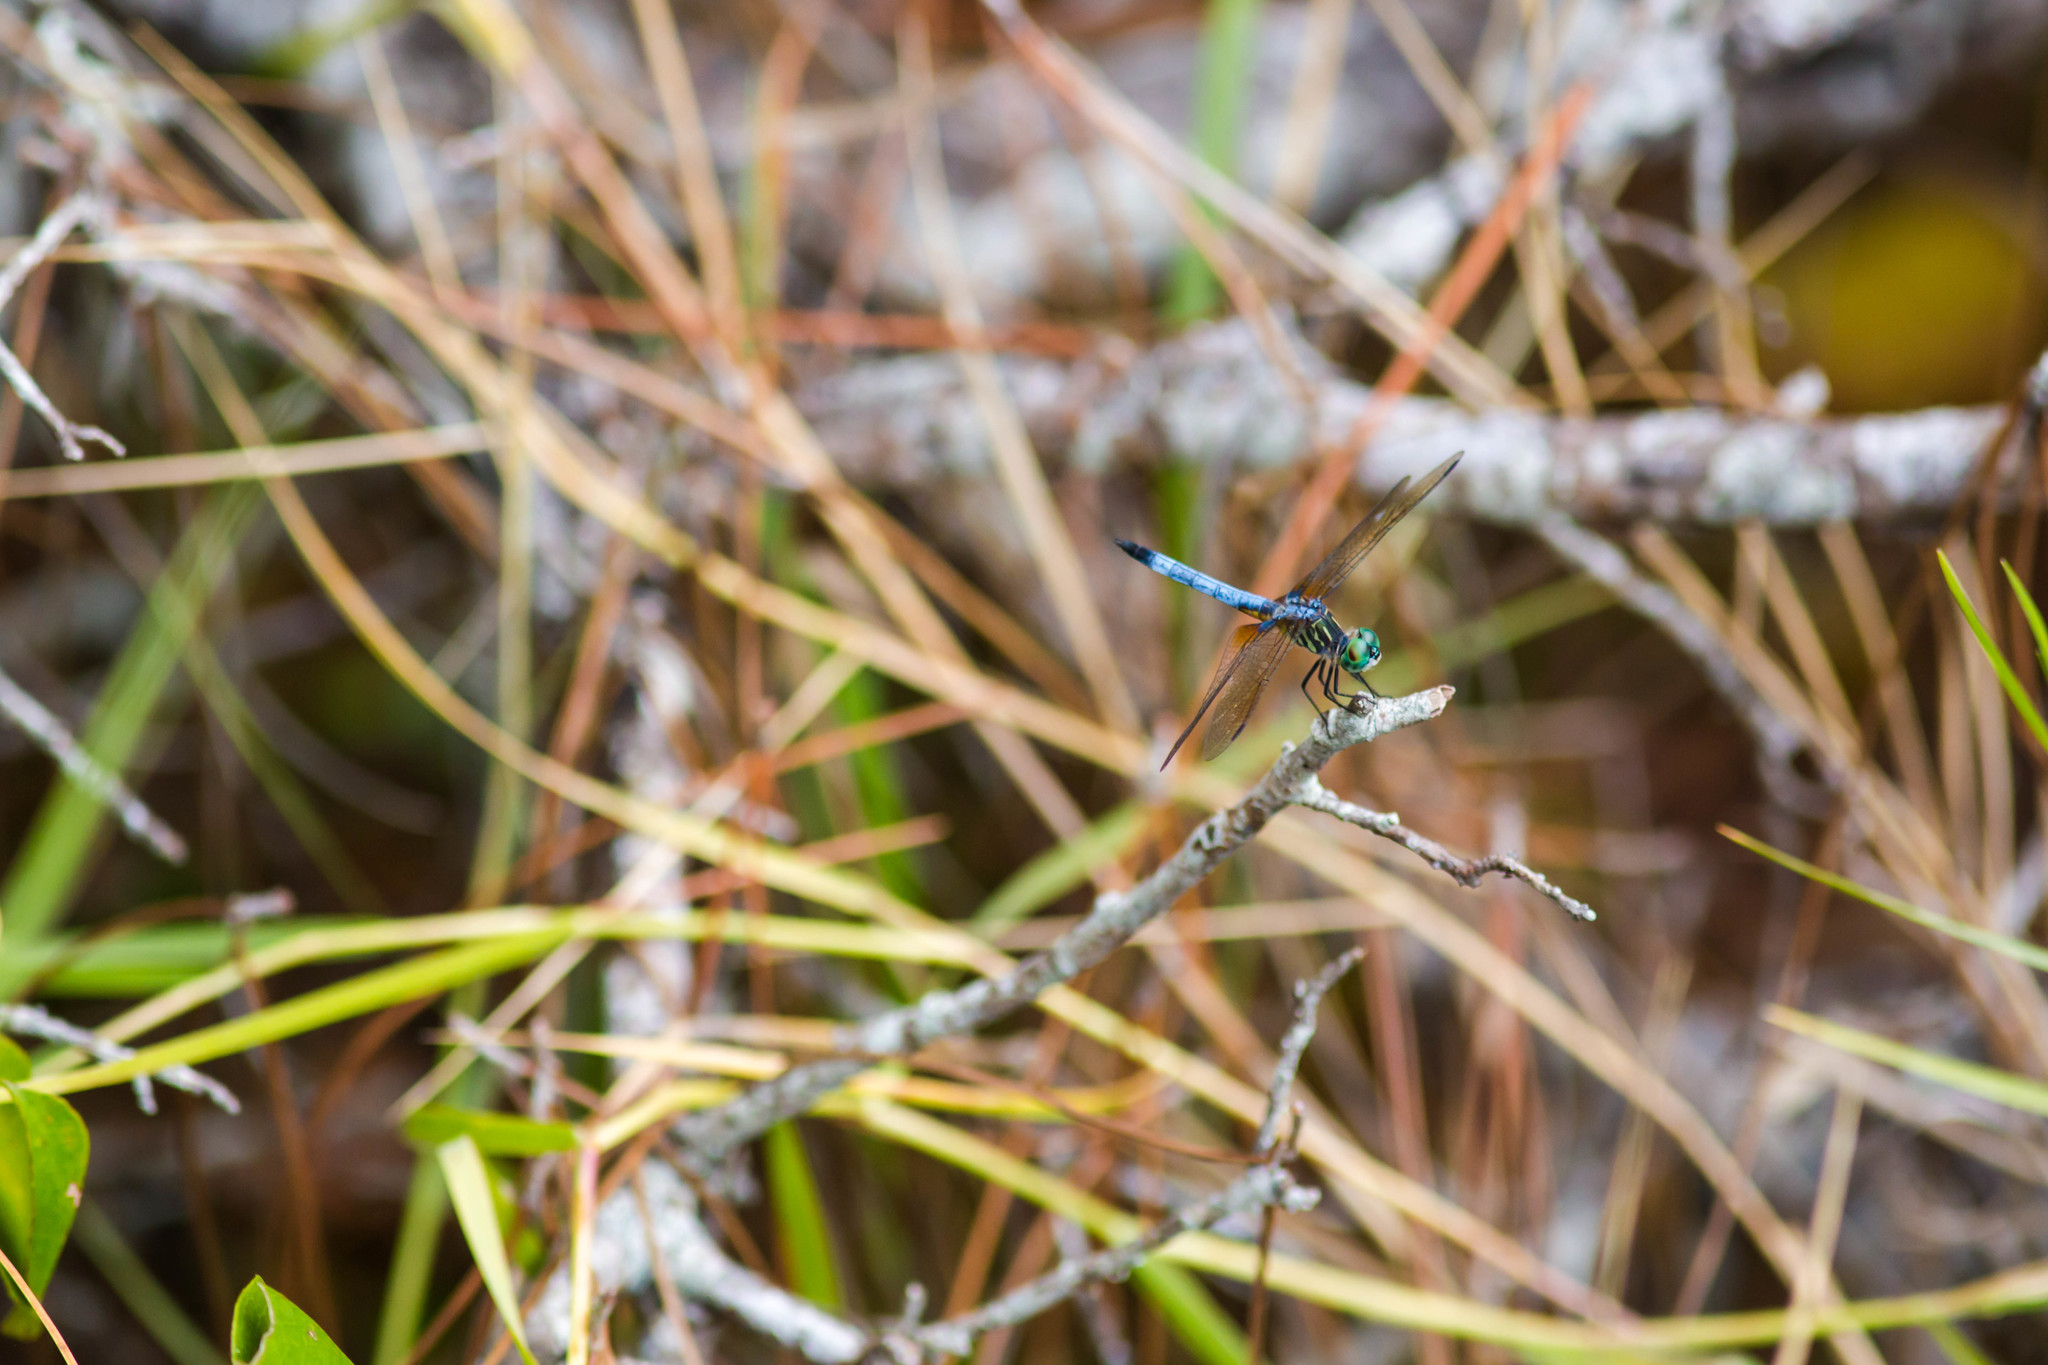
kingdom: Animalia
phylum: Arthropoda
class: Insecta
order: Odonata
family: Libellulidae
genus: Pachydiplax
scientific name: Pachydiplax longipennis
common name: Blue dasher
